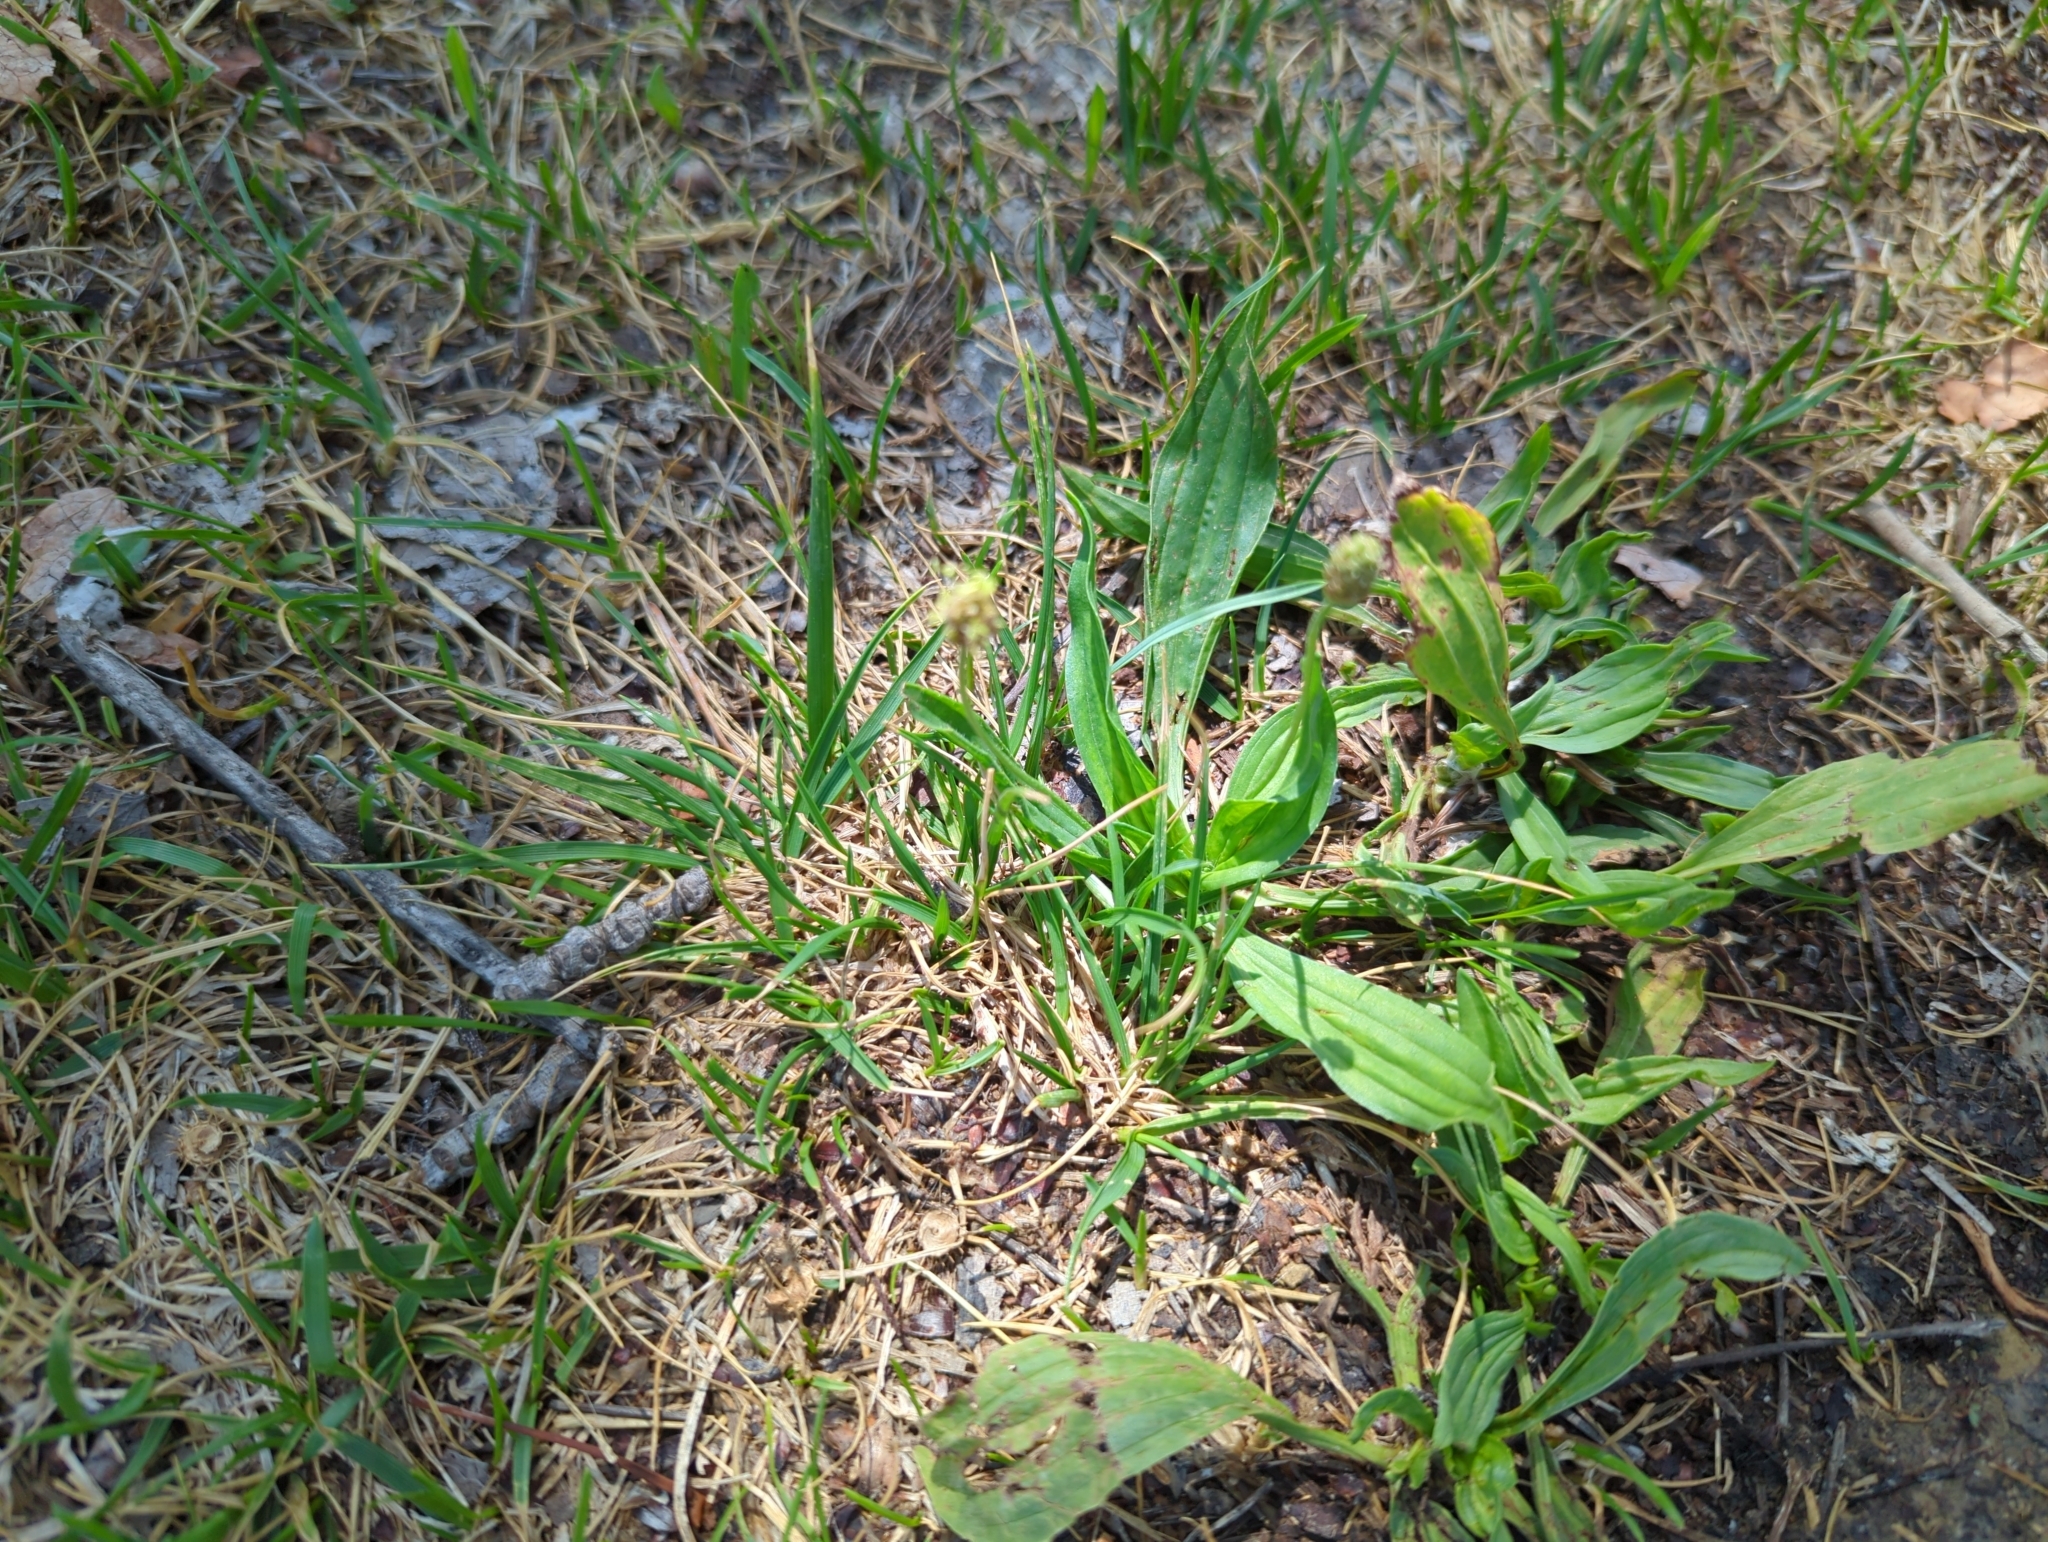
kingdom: Plantae
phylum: Tracheophyta
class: Magnoliopsida
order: Lamiales
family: Plantaginaceae
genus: Plantago
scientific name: Plantago lanceolata
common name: Ribwort plantain
